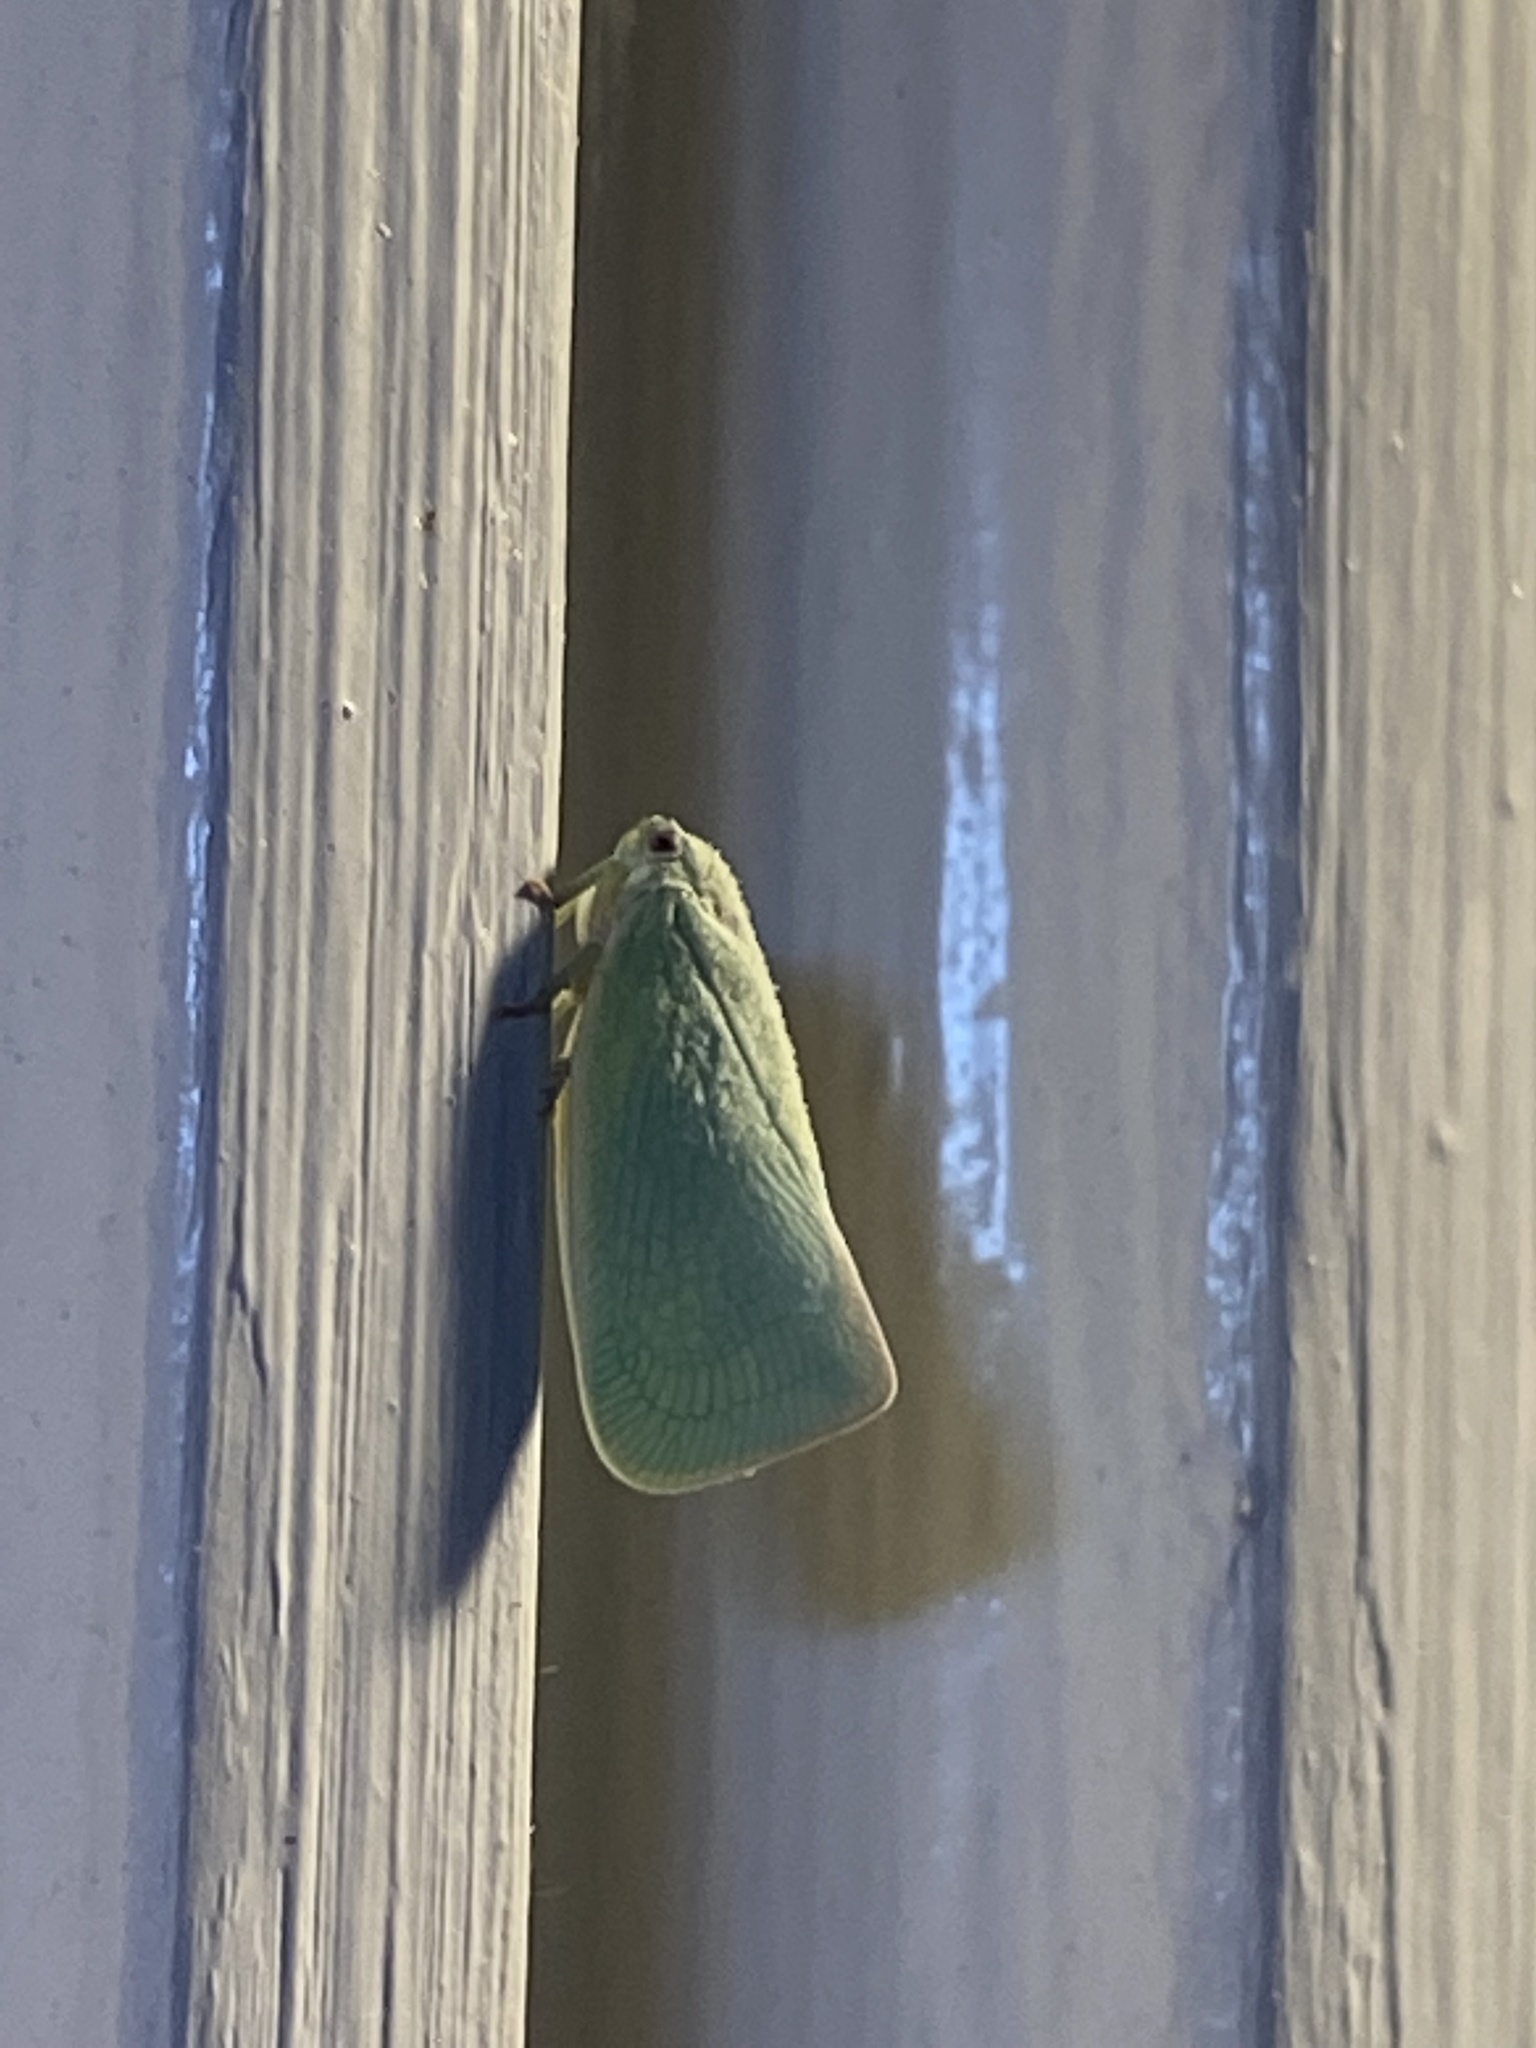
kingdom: Animalia
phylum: Arthropoda
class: Insecta
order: Hemiptera
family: Flatidae
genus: Flatormenis
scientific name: Flatormenis proxima
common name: Northern flatid planthopper
